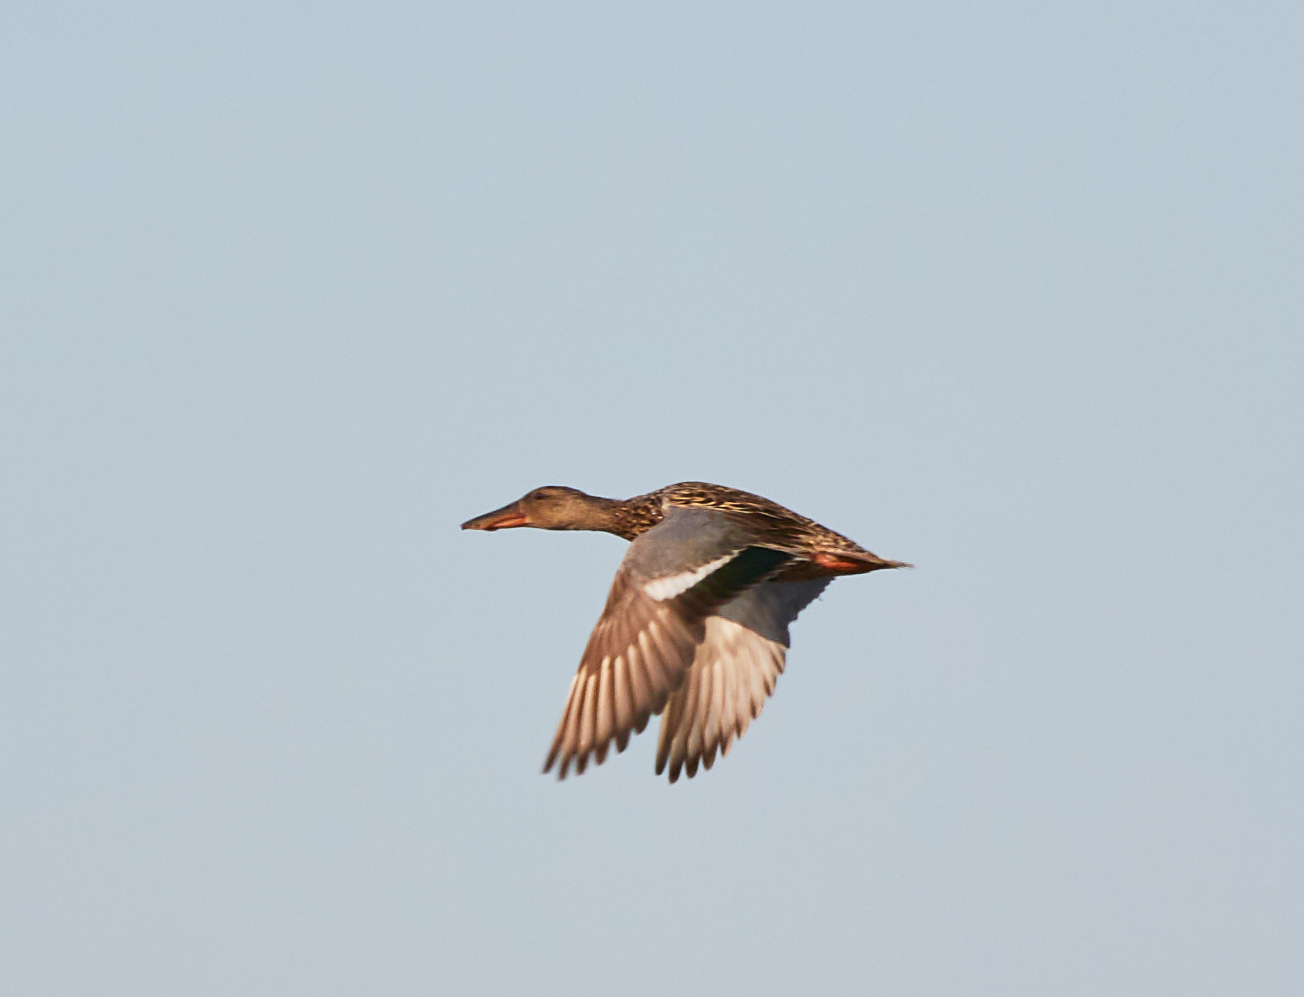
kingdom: Animalia
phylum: Chordata
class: Aves
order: Anseriformes
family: Anatidae
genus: Spatula
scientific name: Spatula clypeata
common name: Northern shoveler
